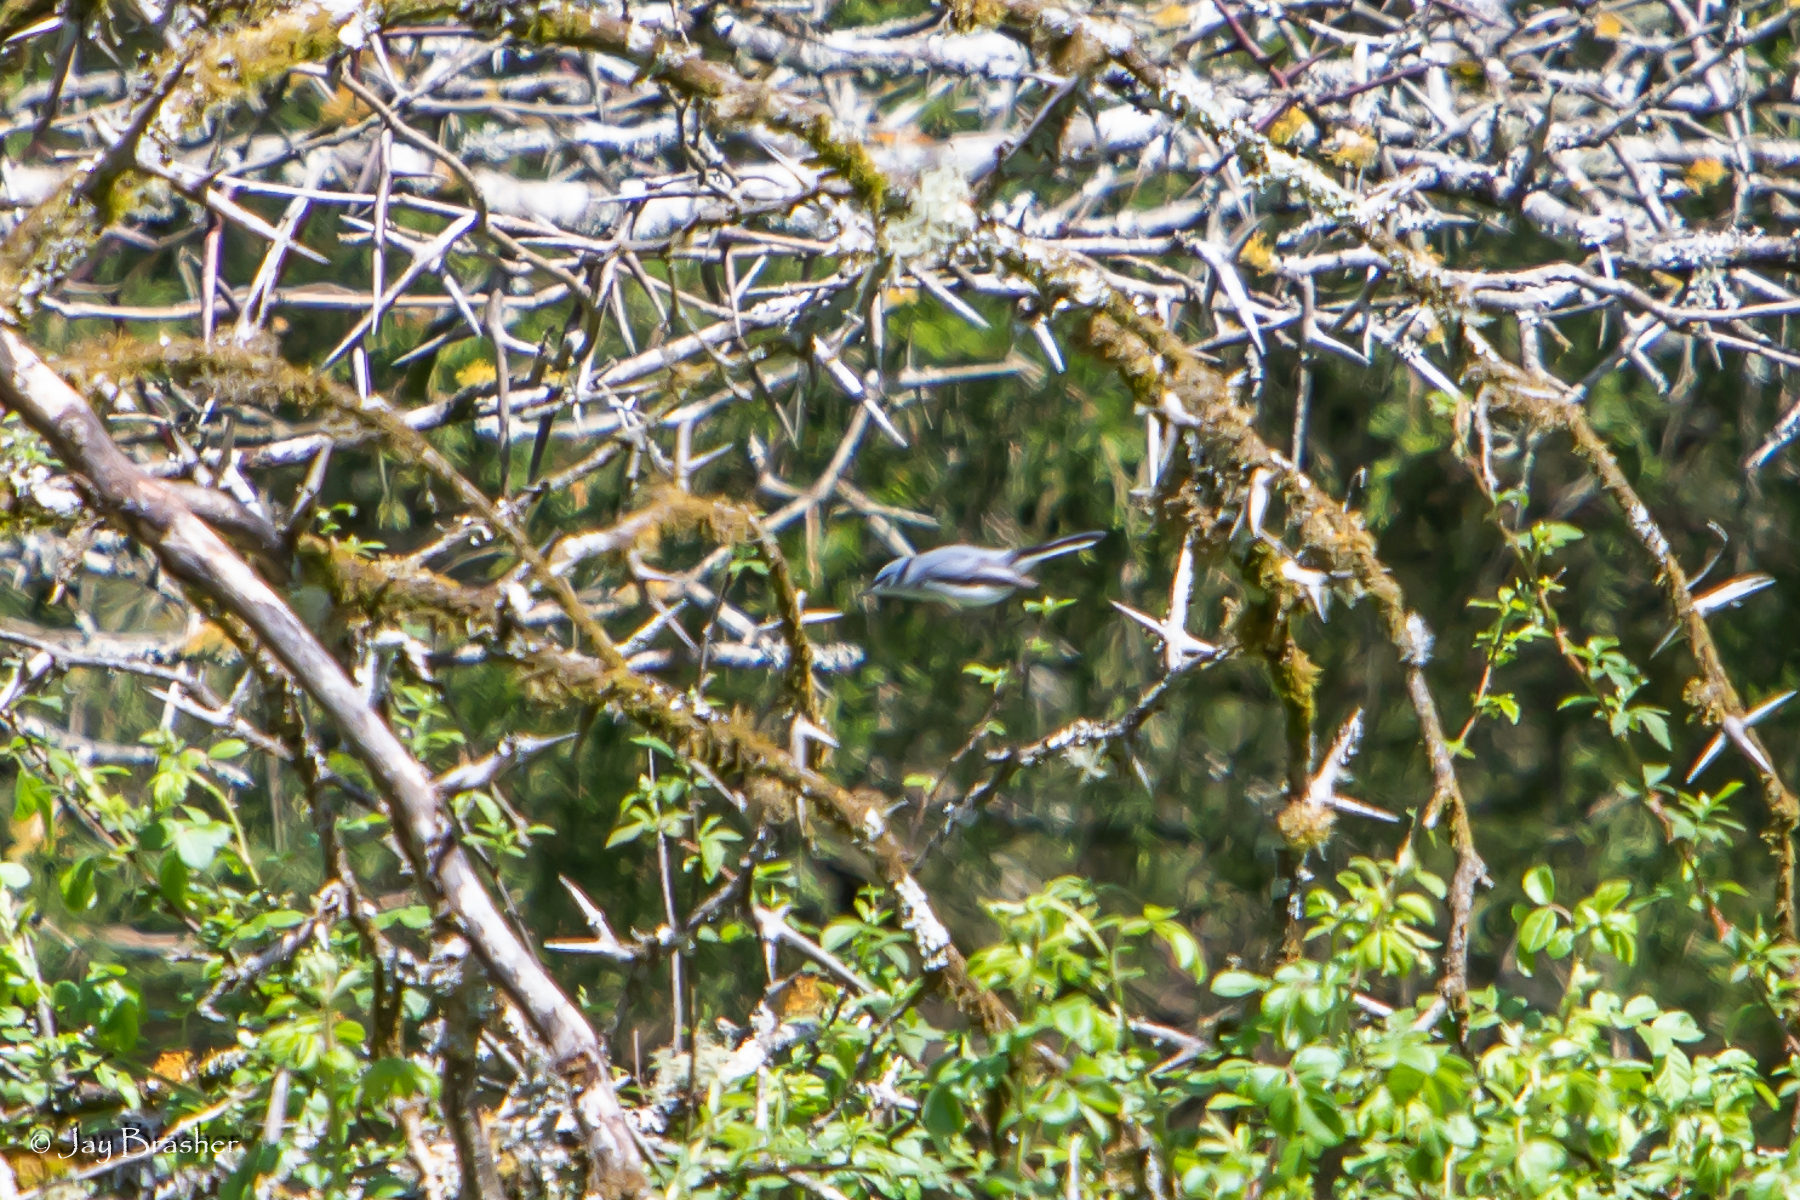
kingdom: Animalia
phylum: Chordata
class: Aves
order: Passeriformes
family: Polioptilidae
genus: Polioptila
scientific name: Polioptila caerulea
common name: Blue-gray gnatcatcher
